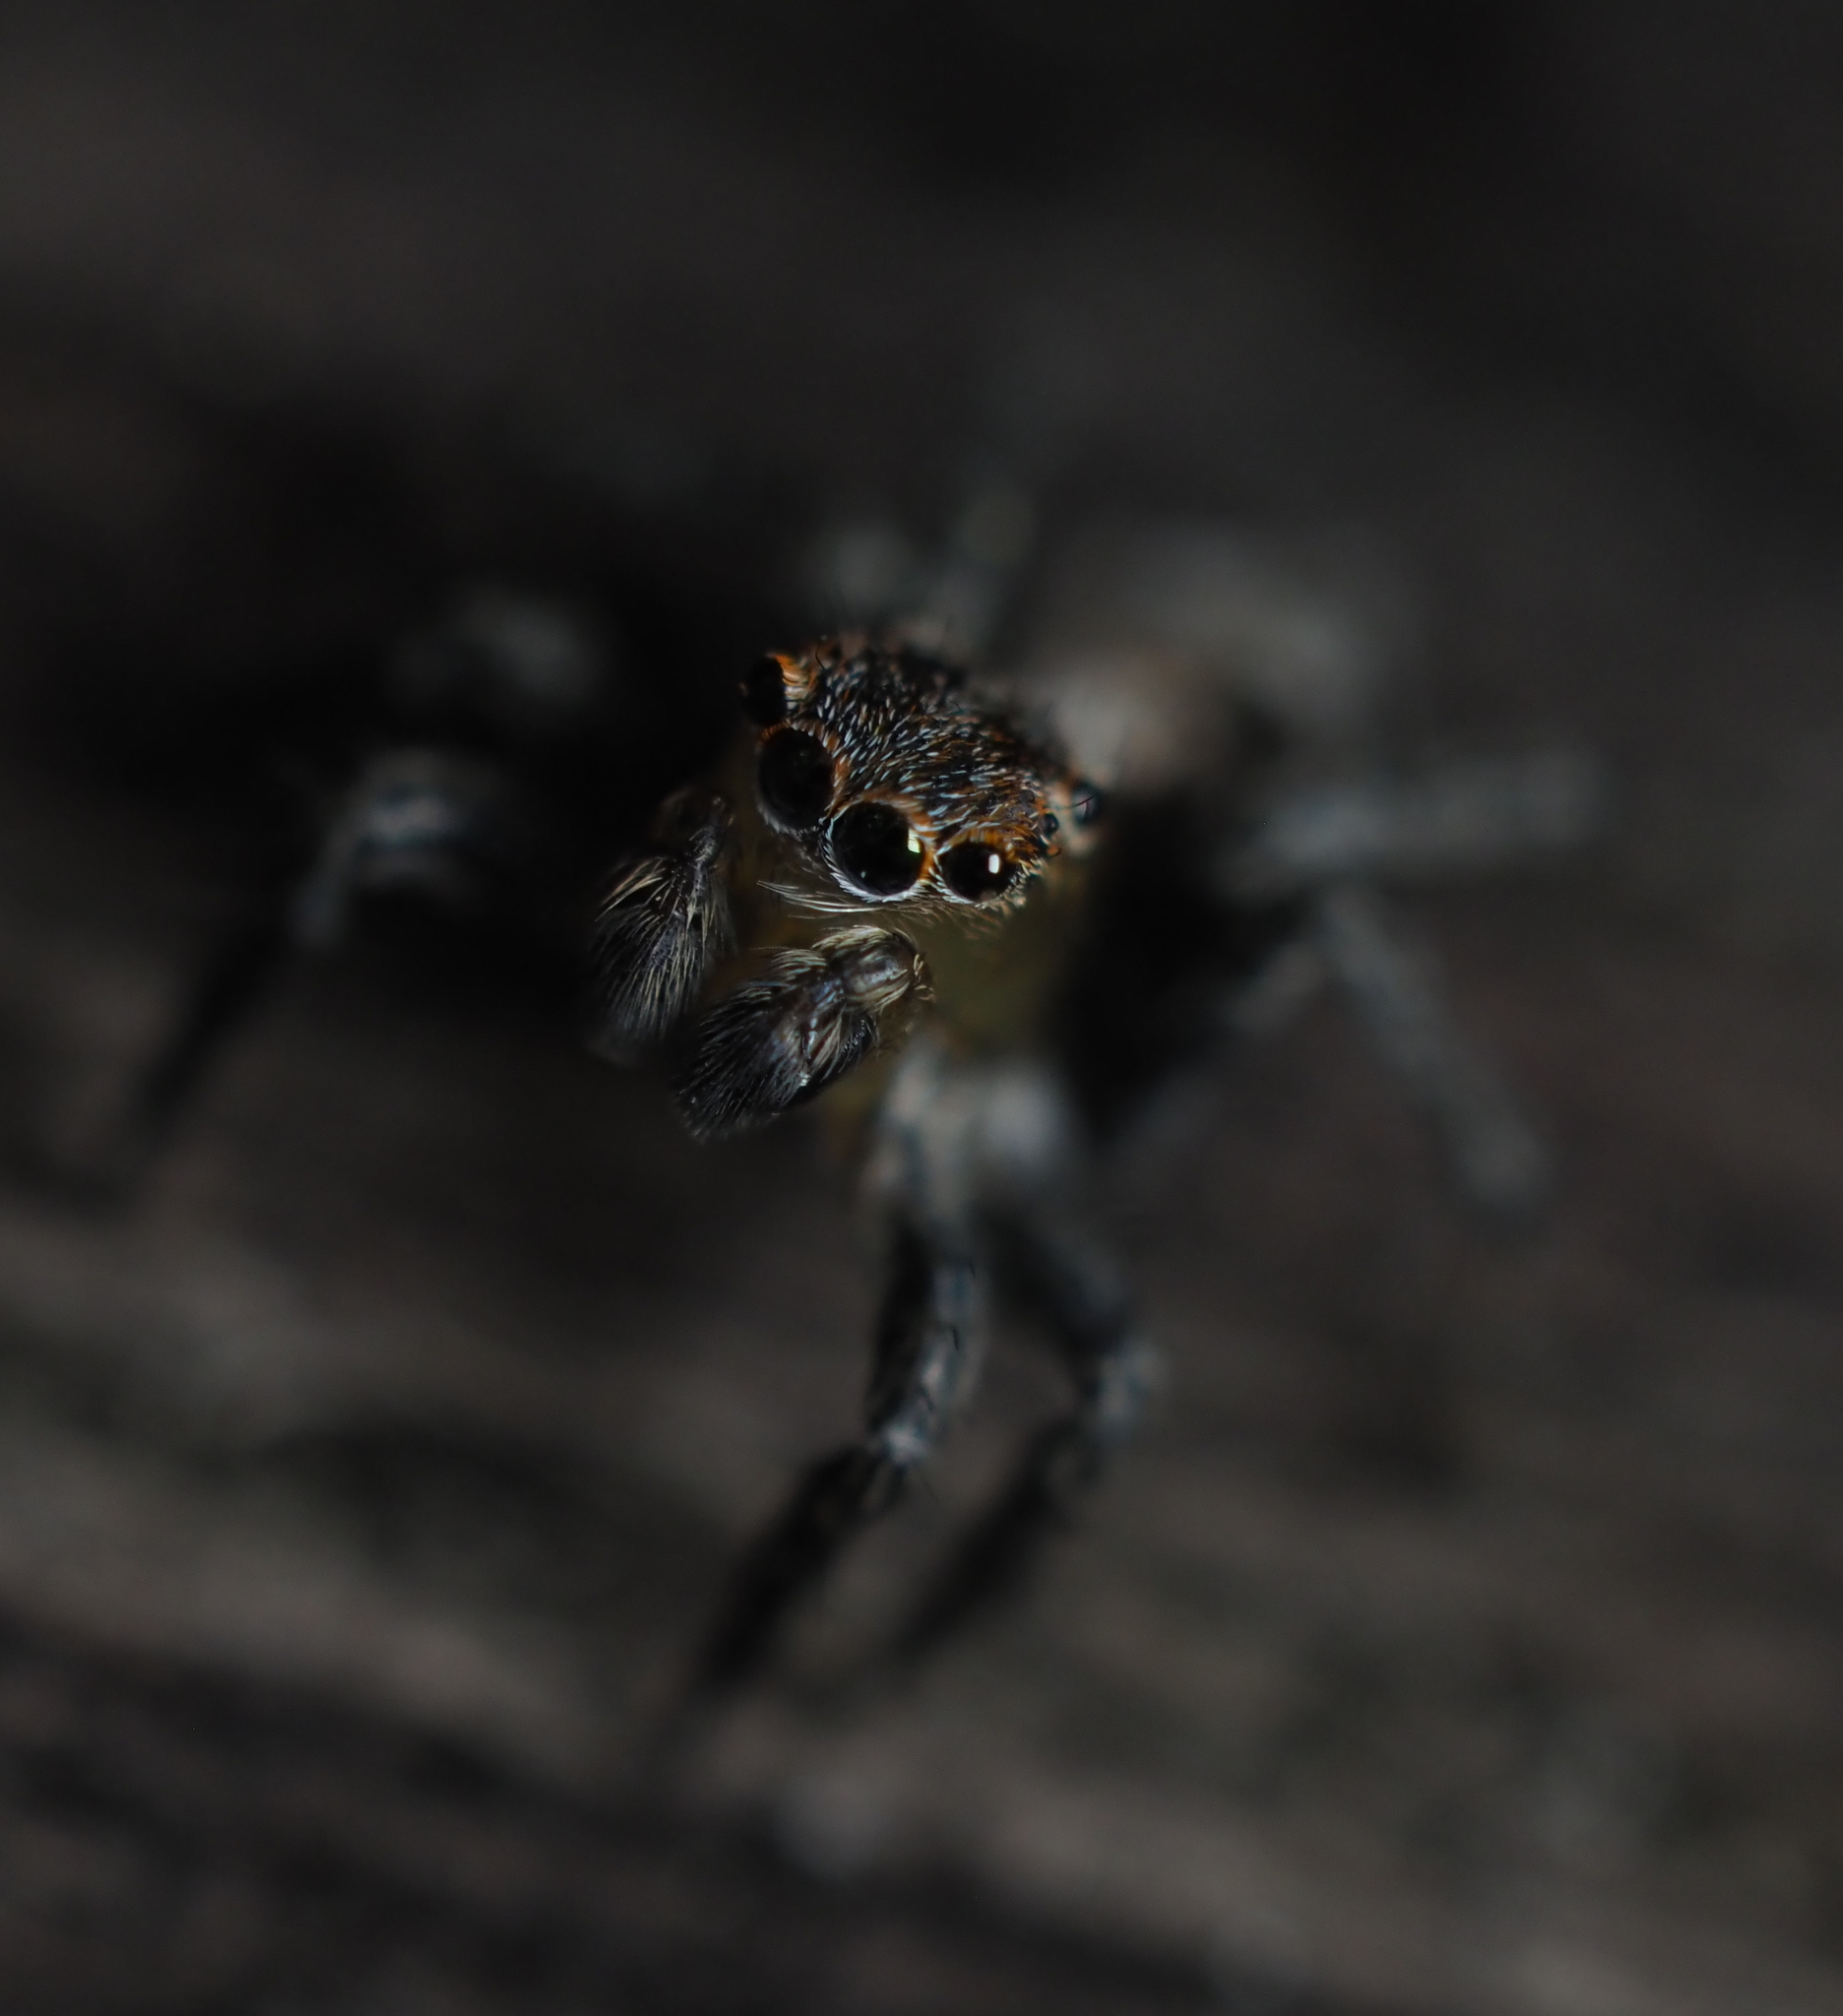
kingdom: Animalia
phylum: Arthropoda
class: Arachnida
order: Araneae
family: Salticidae
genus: Naphrys
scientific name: Naphrys pulex
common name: Flea jumping spider
